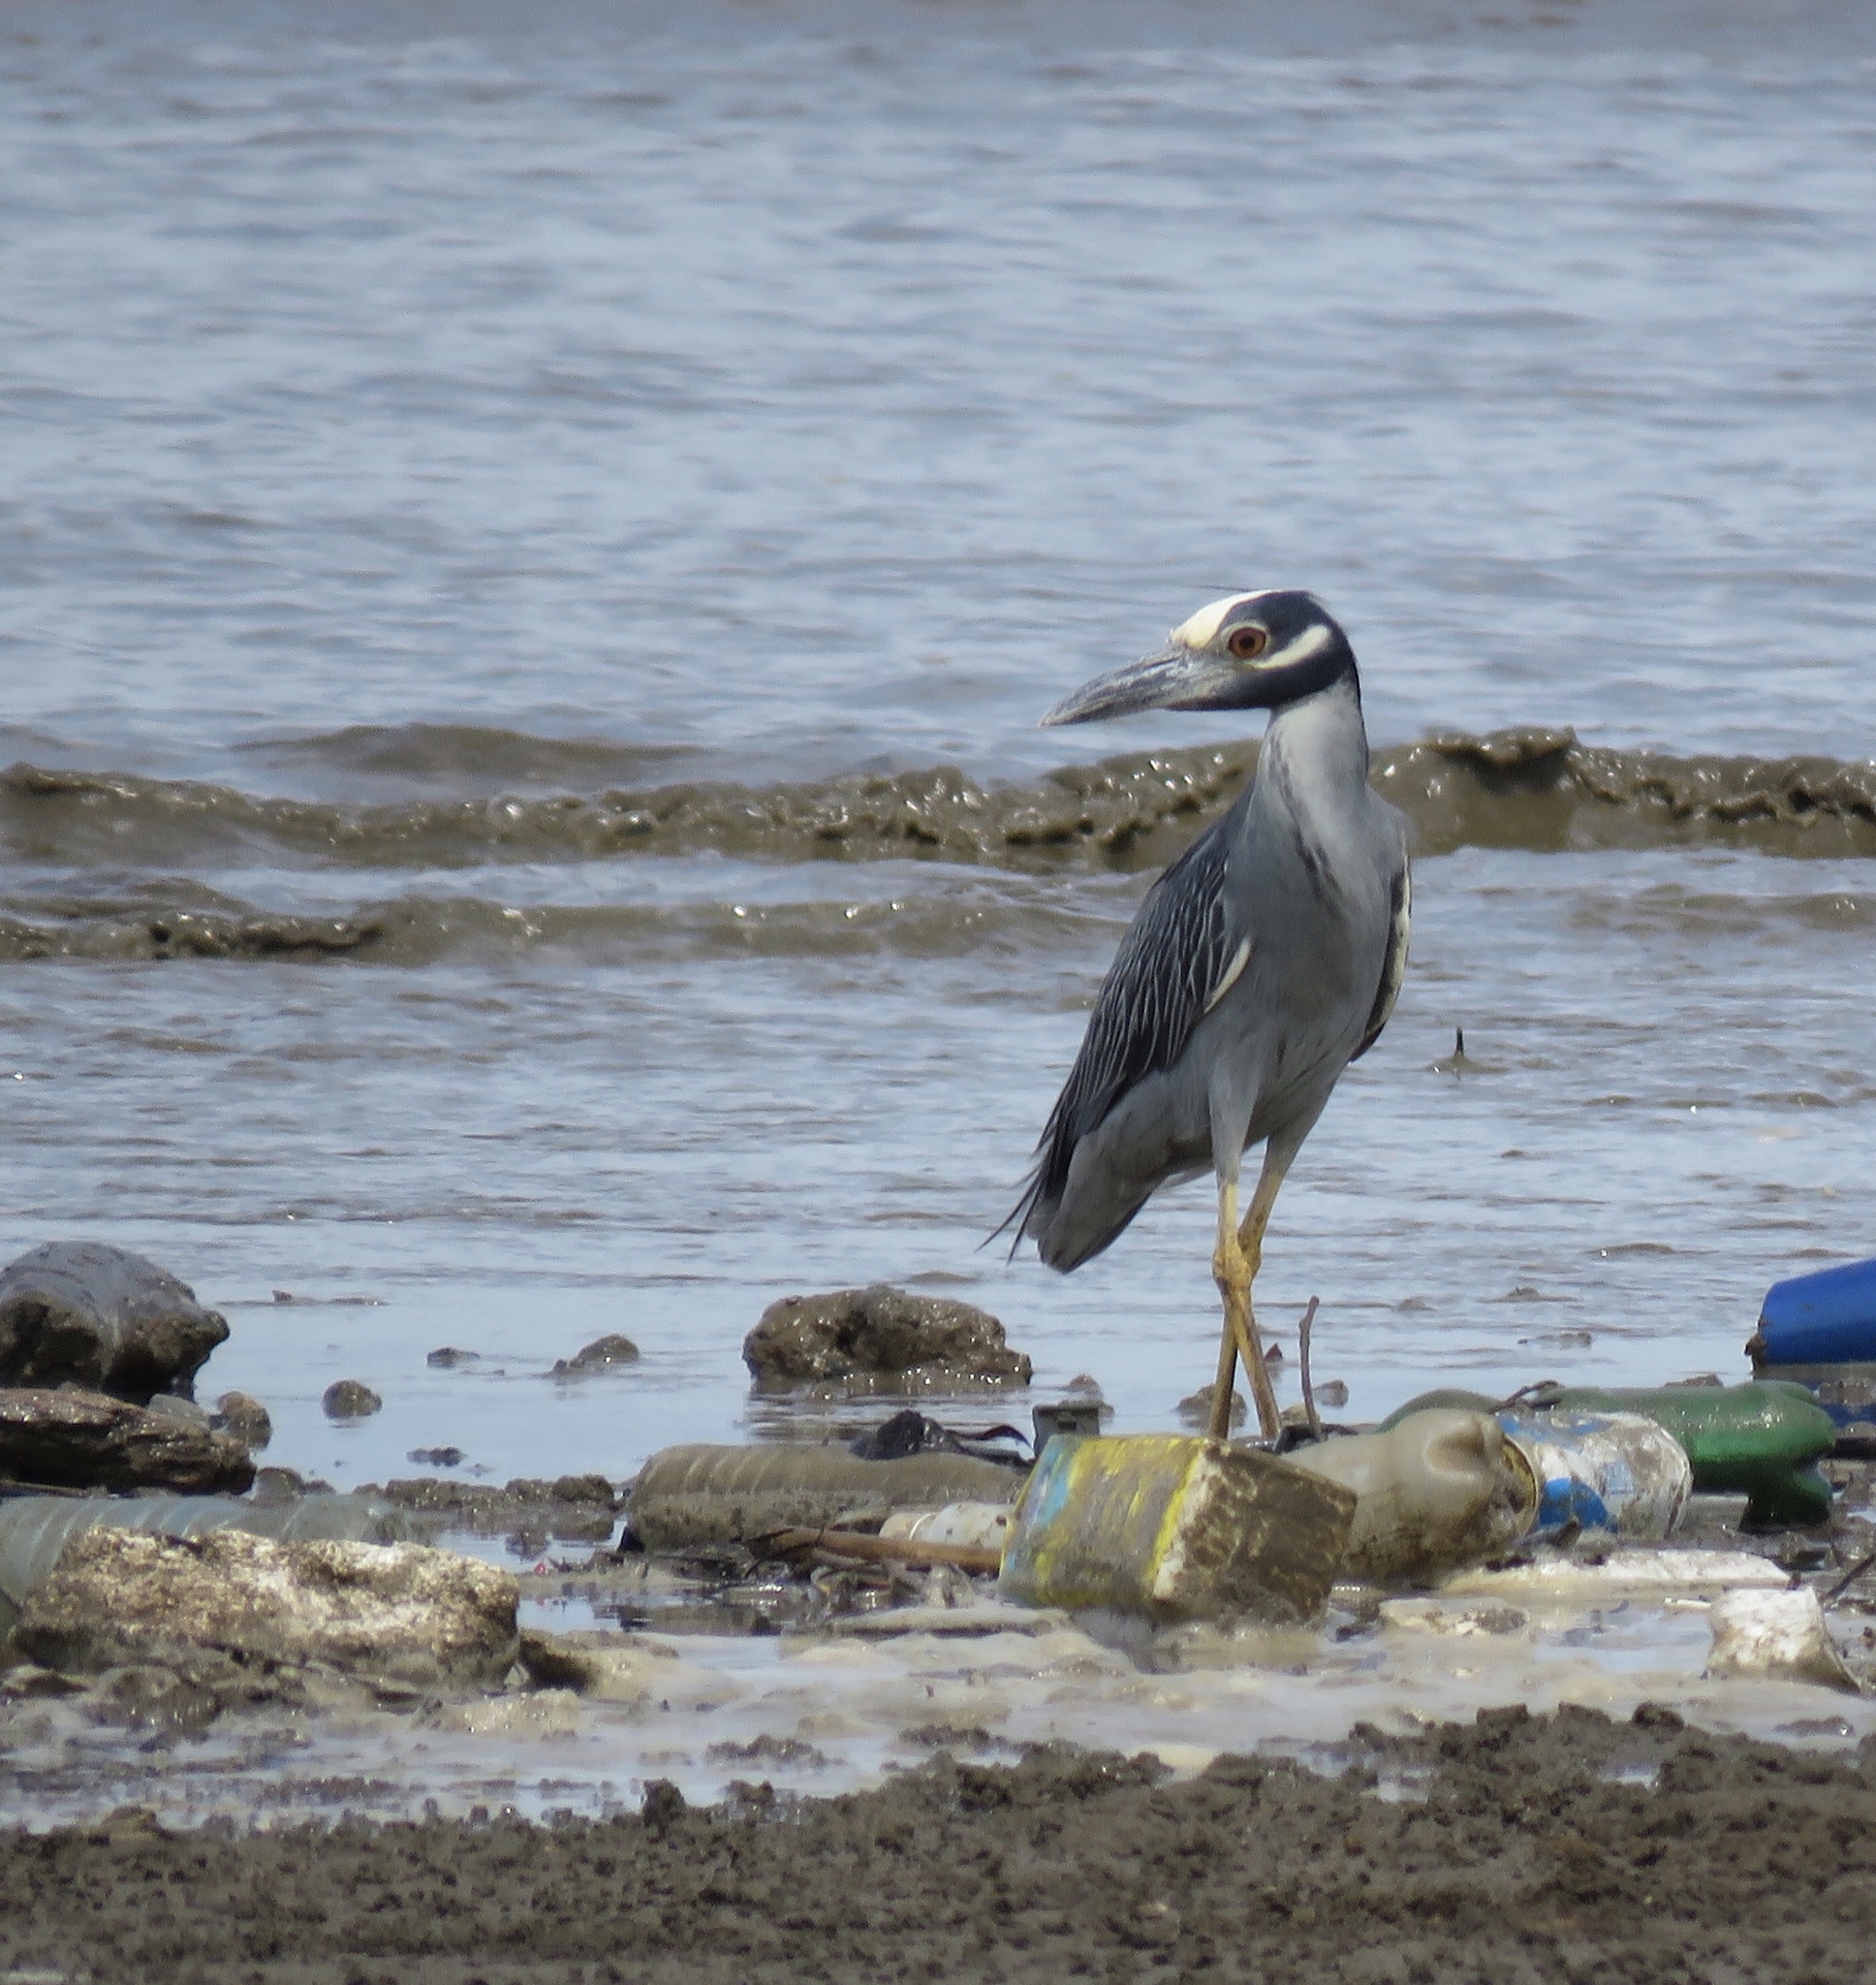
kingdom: Animalia
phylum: Chordata
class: Aves
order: Pelecaniformes
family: Ardeidae
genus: Nyctanassa
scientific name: Nyctanassa violacea
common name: Yellow-crowned night heron
